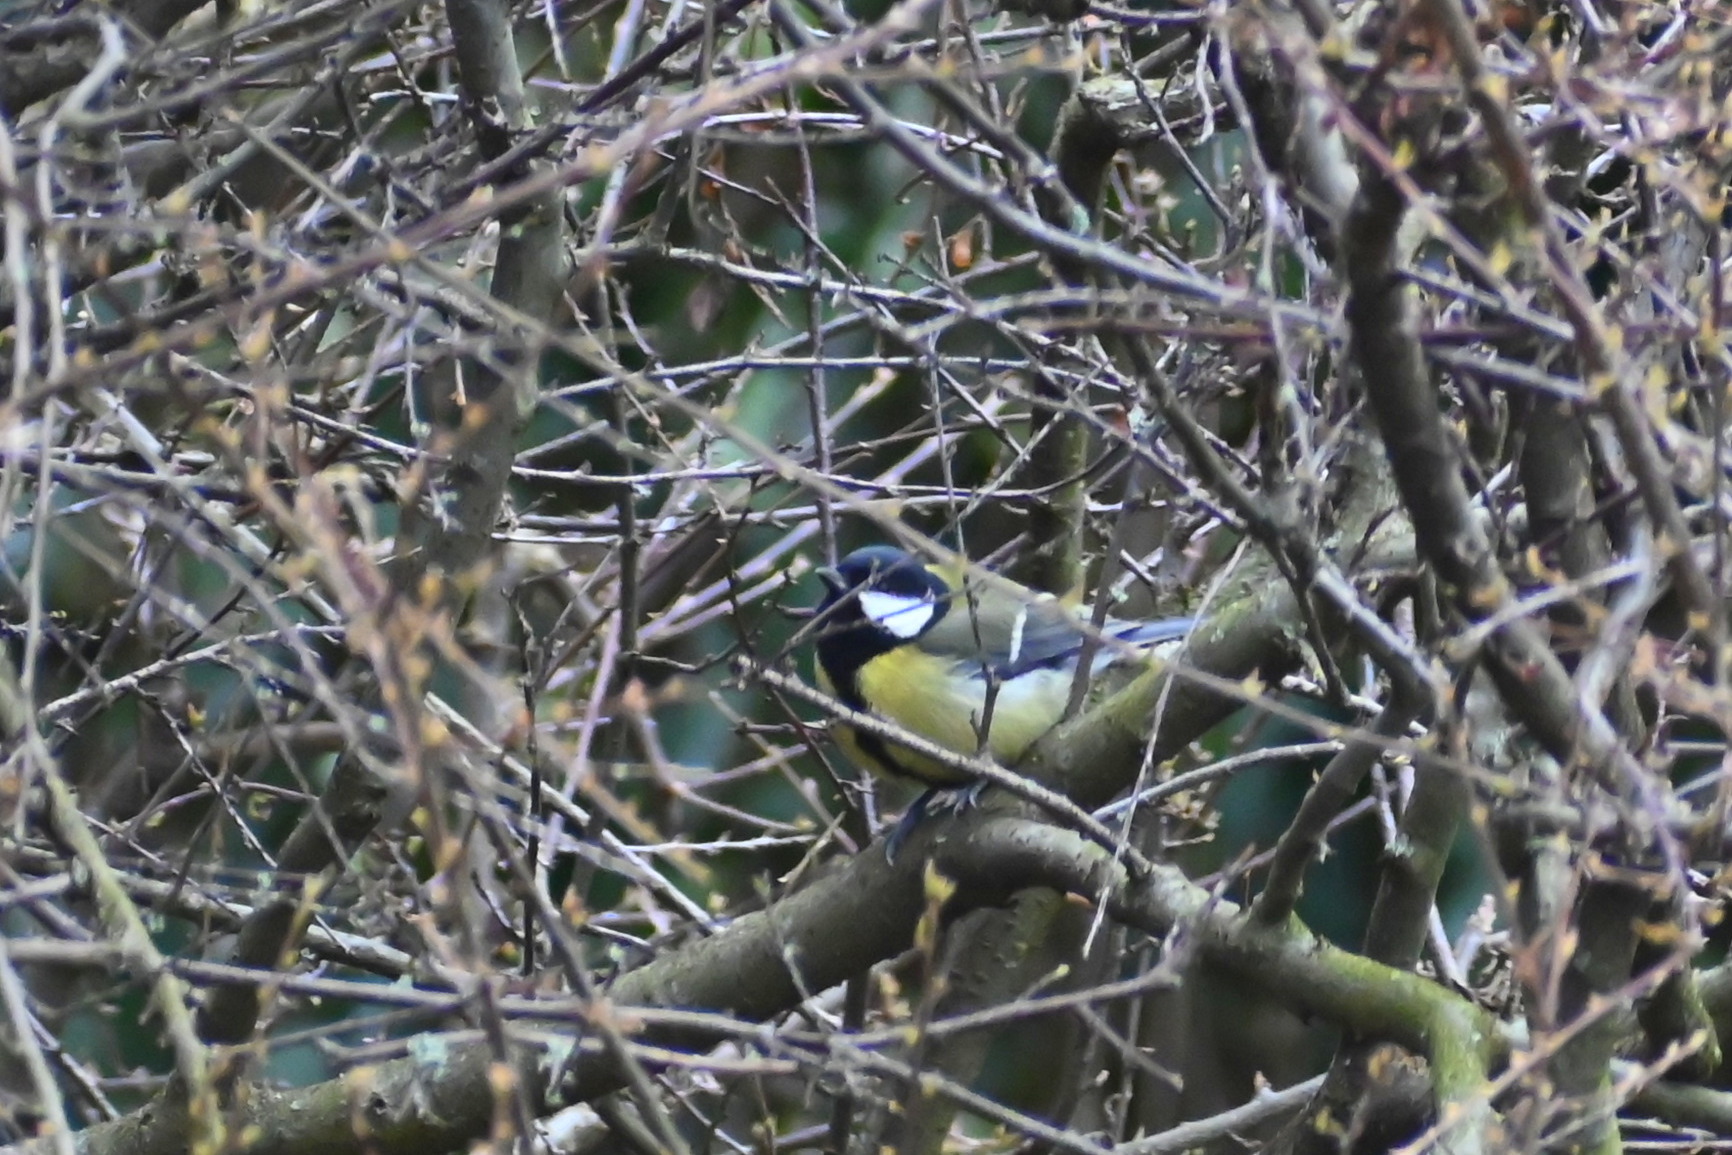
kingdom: Animalia
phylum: Chordata
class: Aves
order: Passeriformes
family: Paridae
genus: Parus
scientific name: Parus major
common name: Great tit
